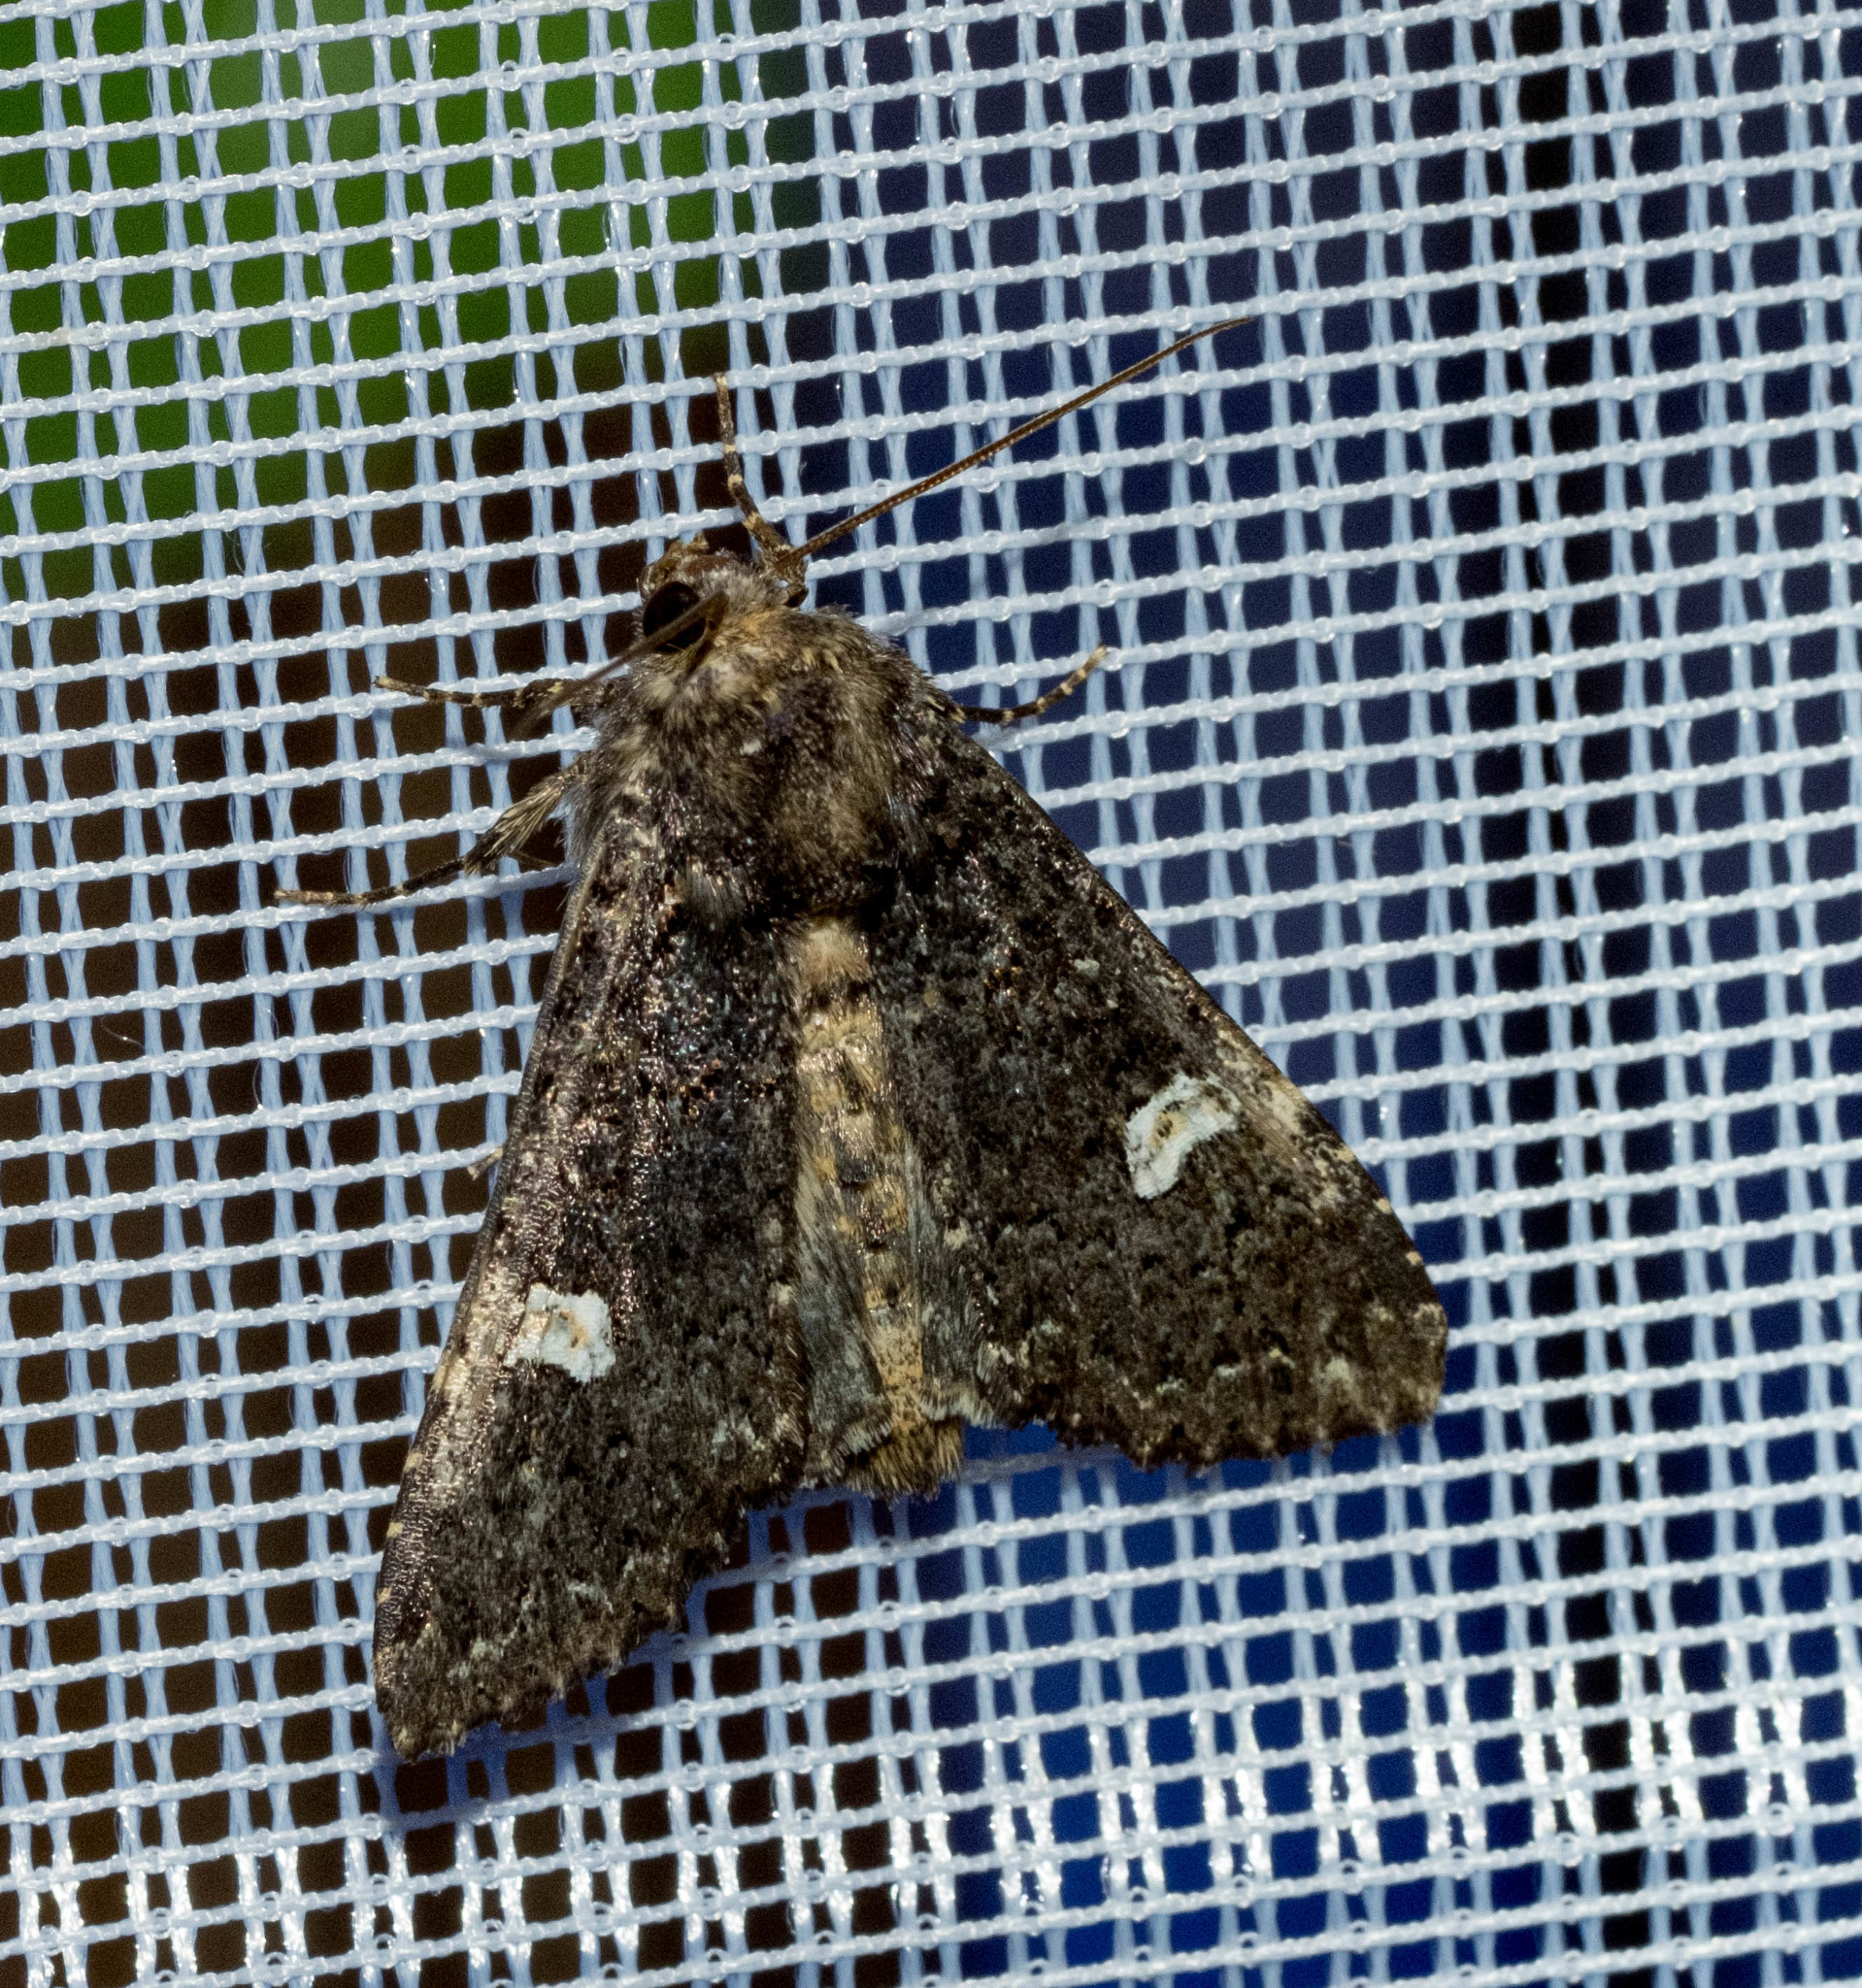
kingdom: Animalia
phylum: Arthropoda
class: Insecta
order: Lepidoptera
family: Noctuidae
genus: Melanchra
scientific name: Melanchra persicariae
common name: Dot moth
